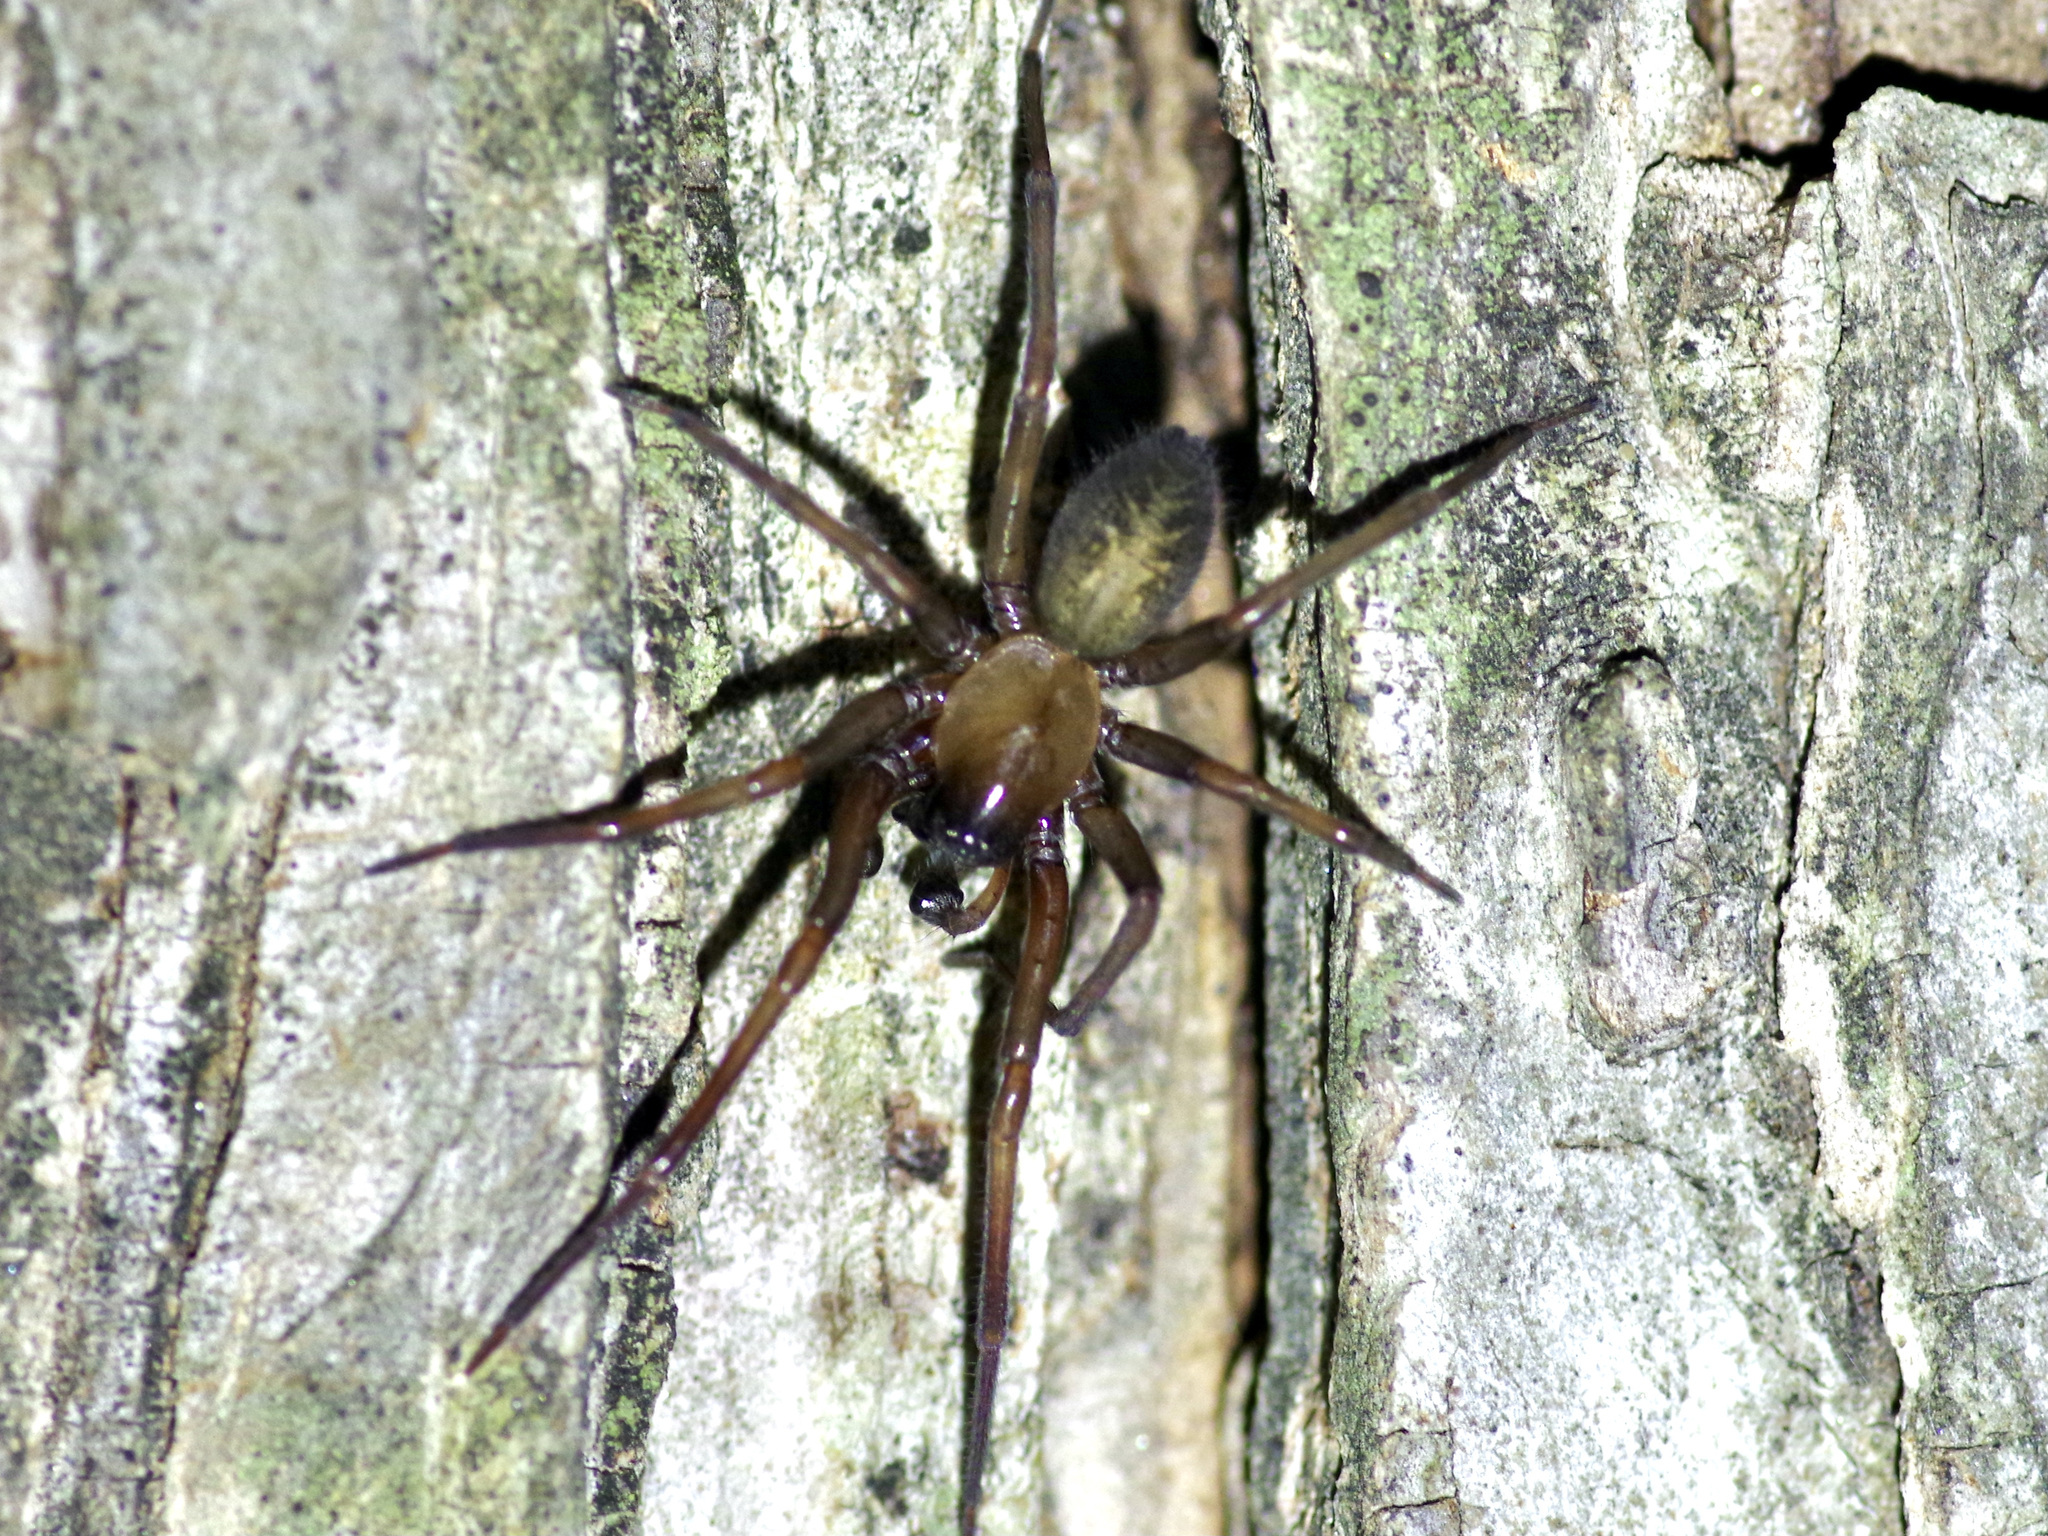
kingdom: Animalia
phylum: Arthropoda
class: Arachnida
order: Araneae
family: Desidae
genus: Metaltella
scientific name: Metaltella simoni
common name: Cribellate spider
